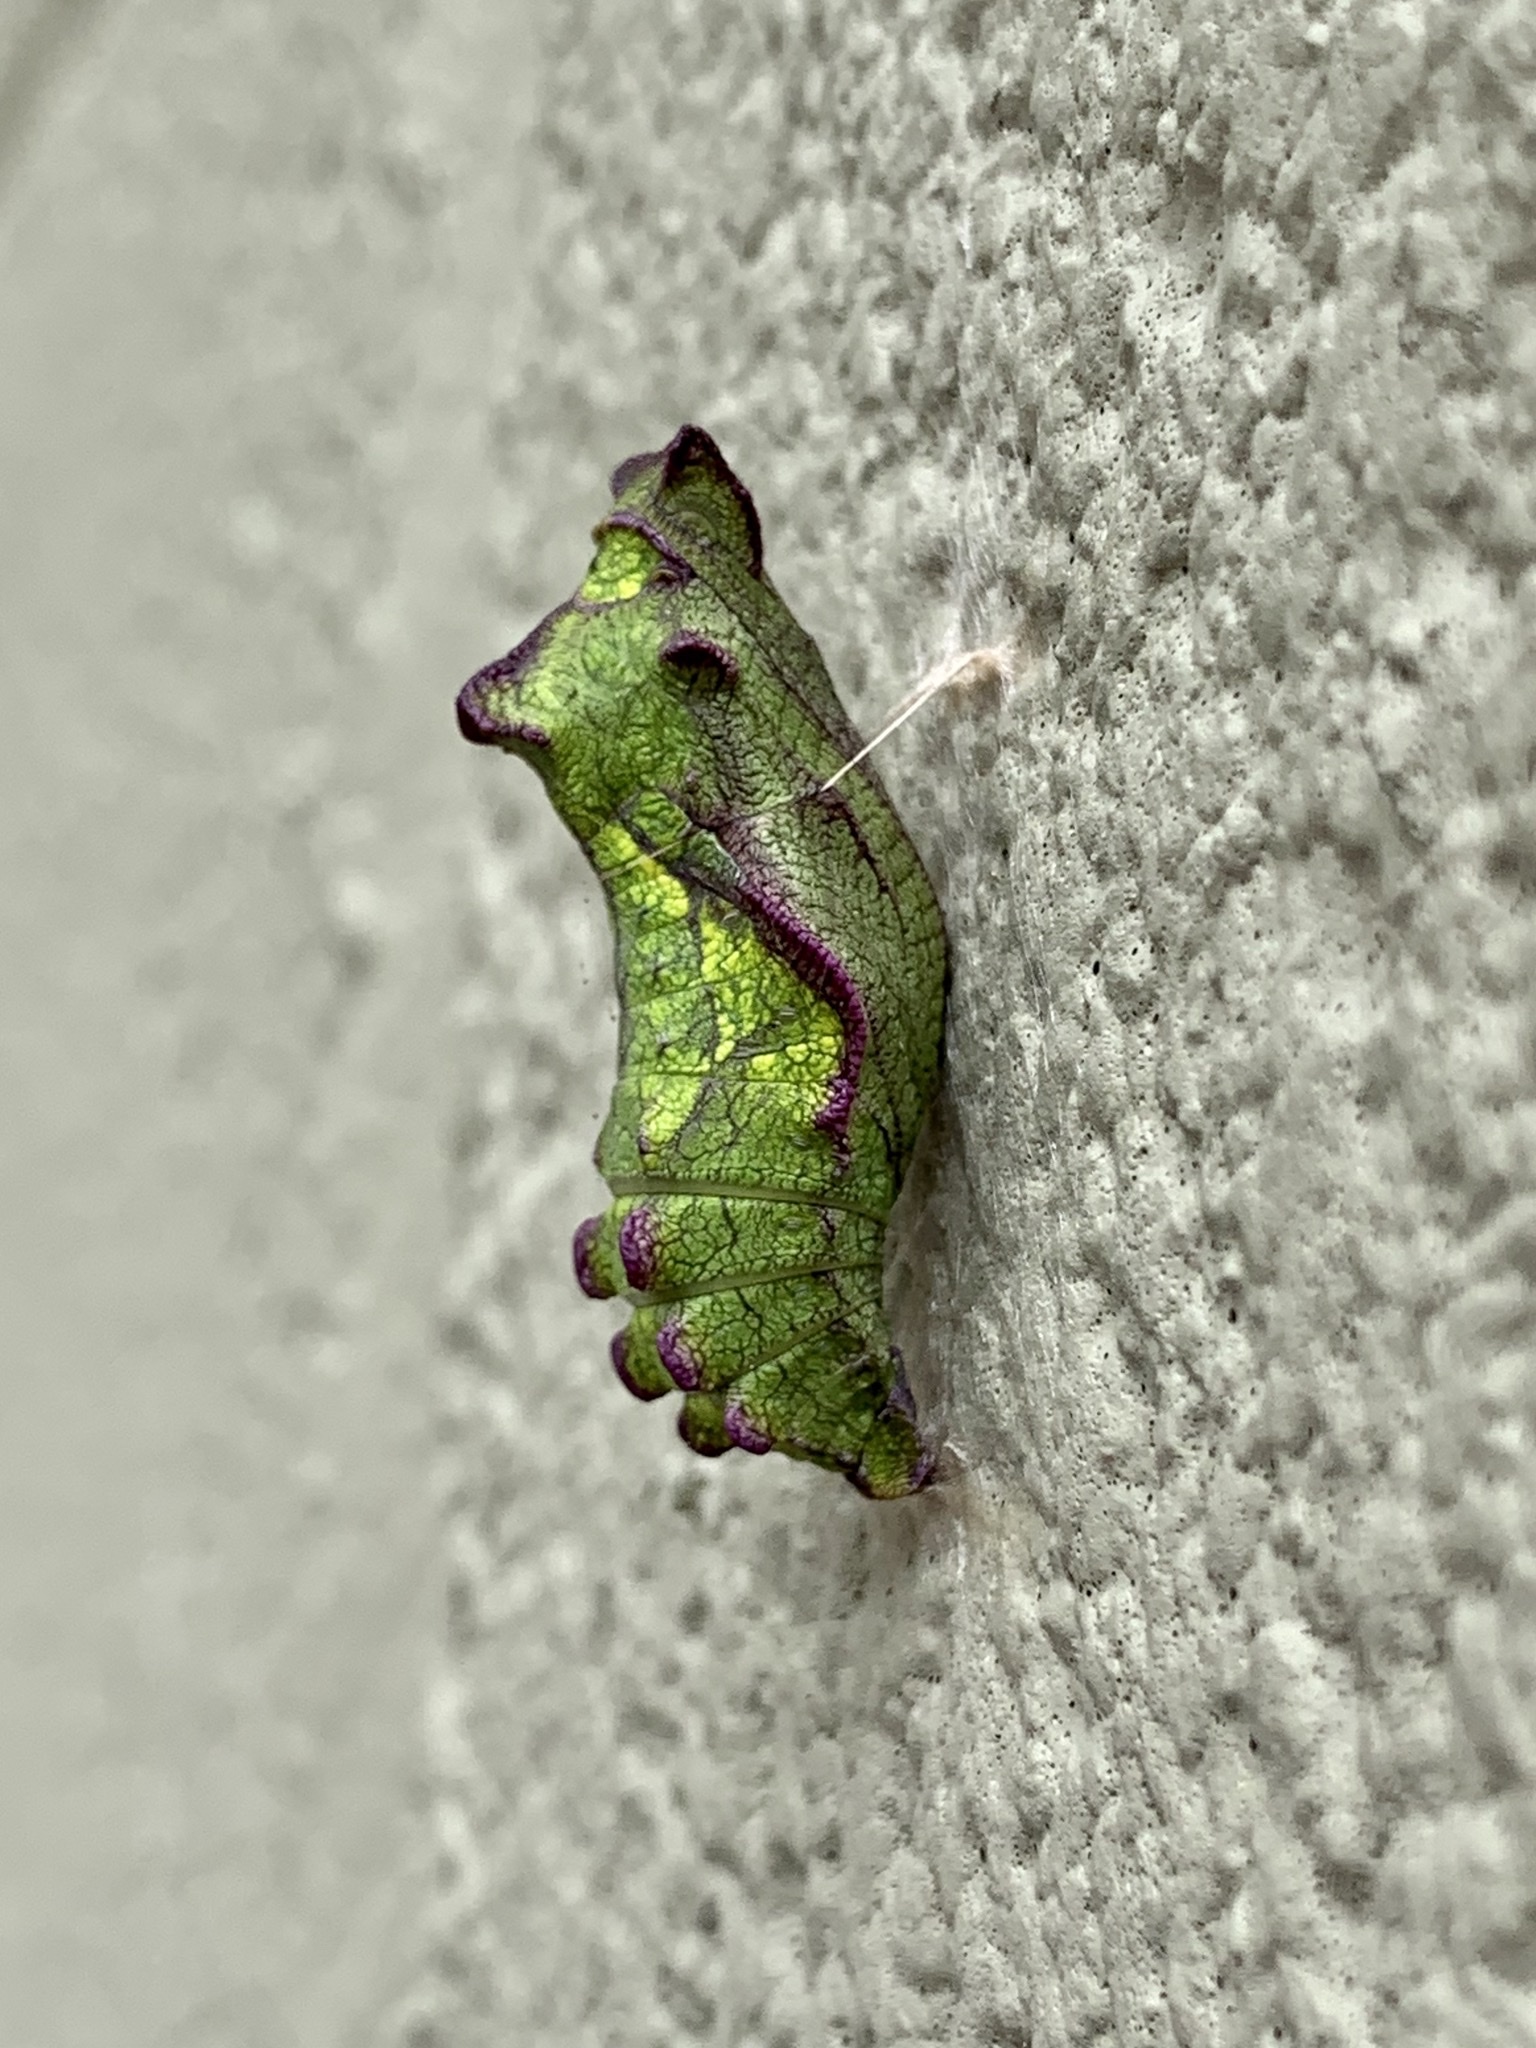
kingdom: Animalia
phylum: Arthropoda
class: Insecta
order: Lepidoptera
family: Papilionidae
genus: Battus
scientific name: Battus philenor
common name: Pipevine swallowtail
